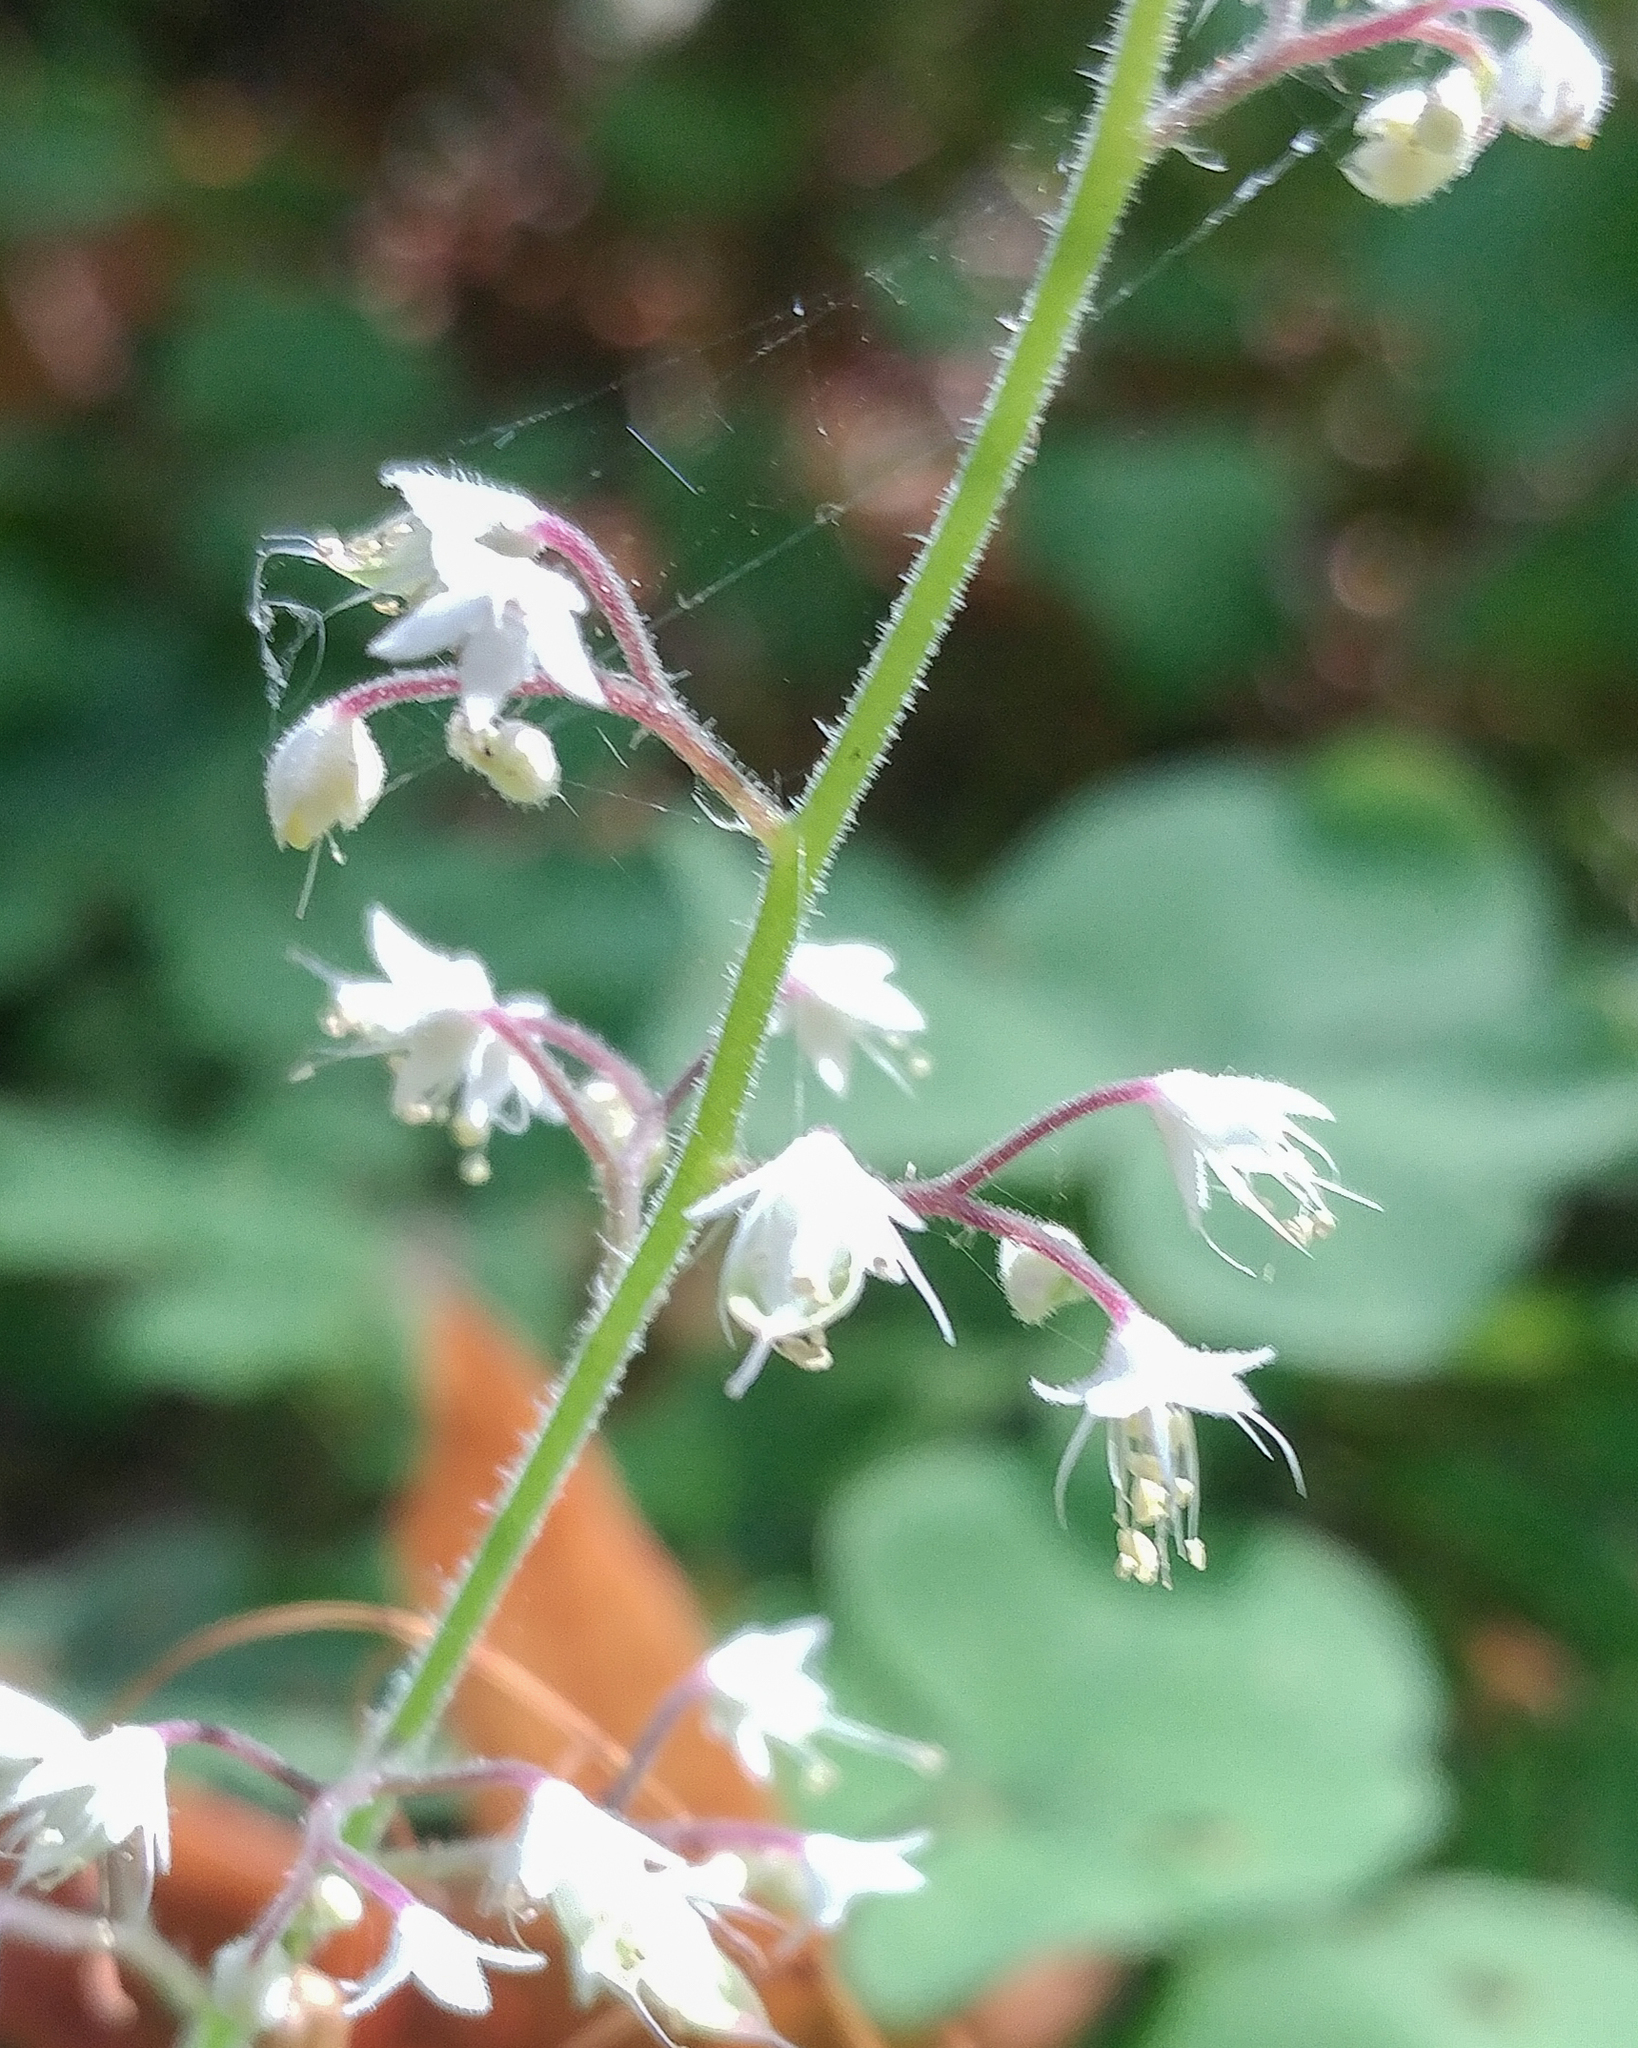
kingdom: Plantae
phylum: Tracheophyta
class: Magnoliopsida
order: Saxifragales
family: Saxifragaceae
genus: Tiarella
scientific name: Tiarella trifoliata
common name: Sugar-scoop
